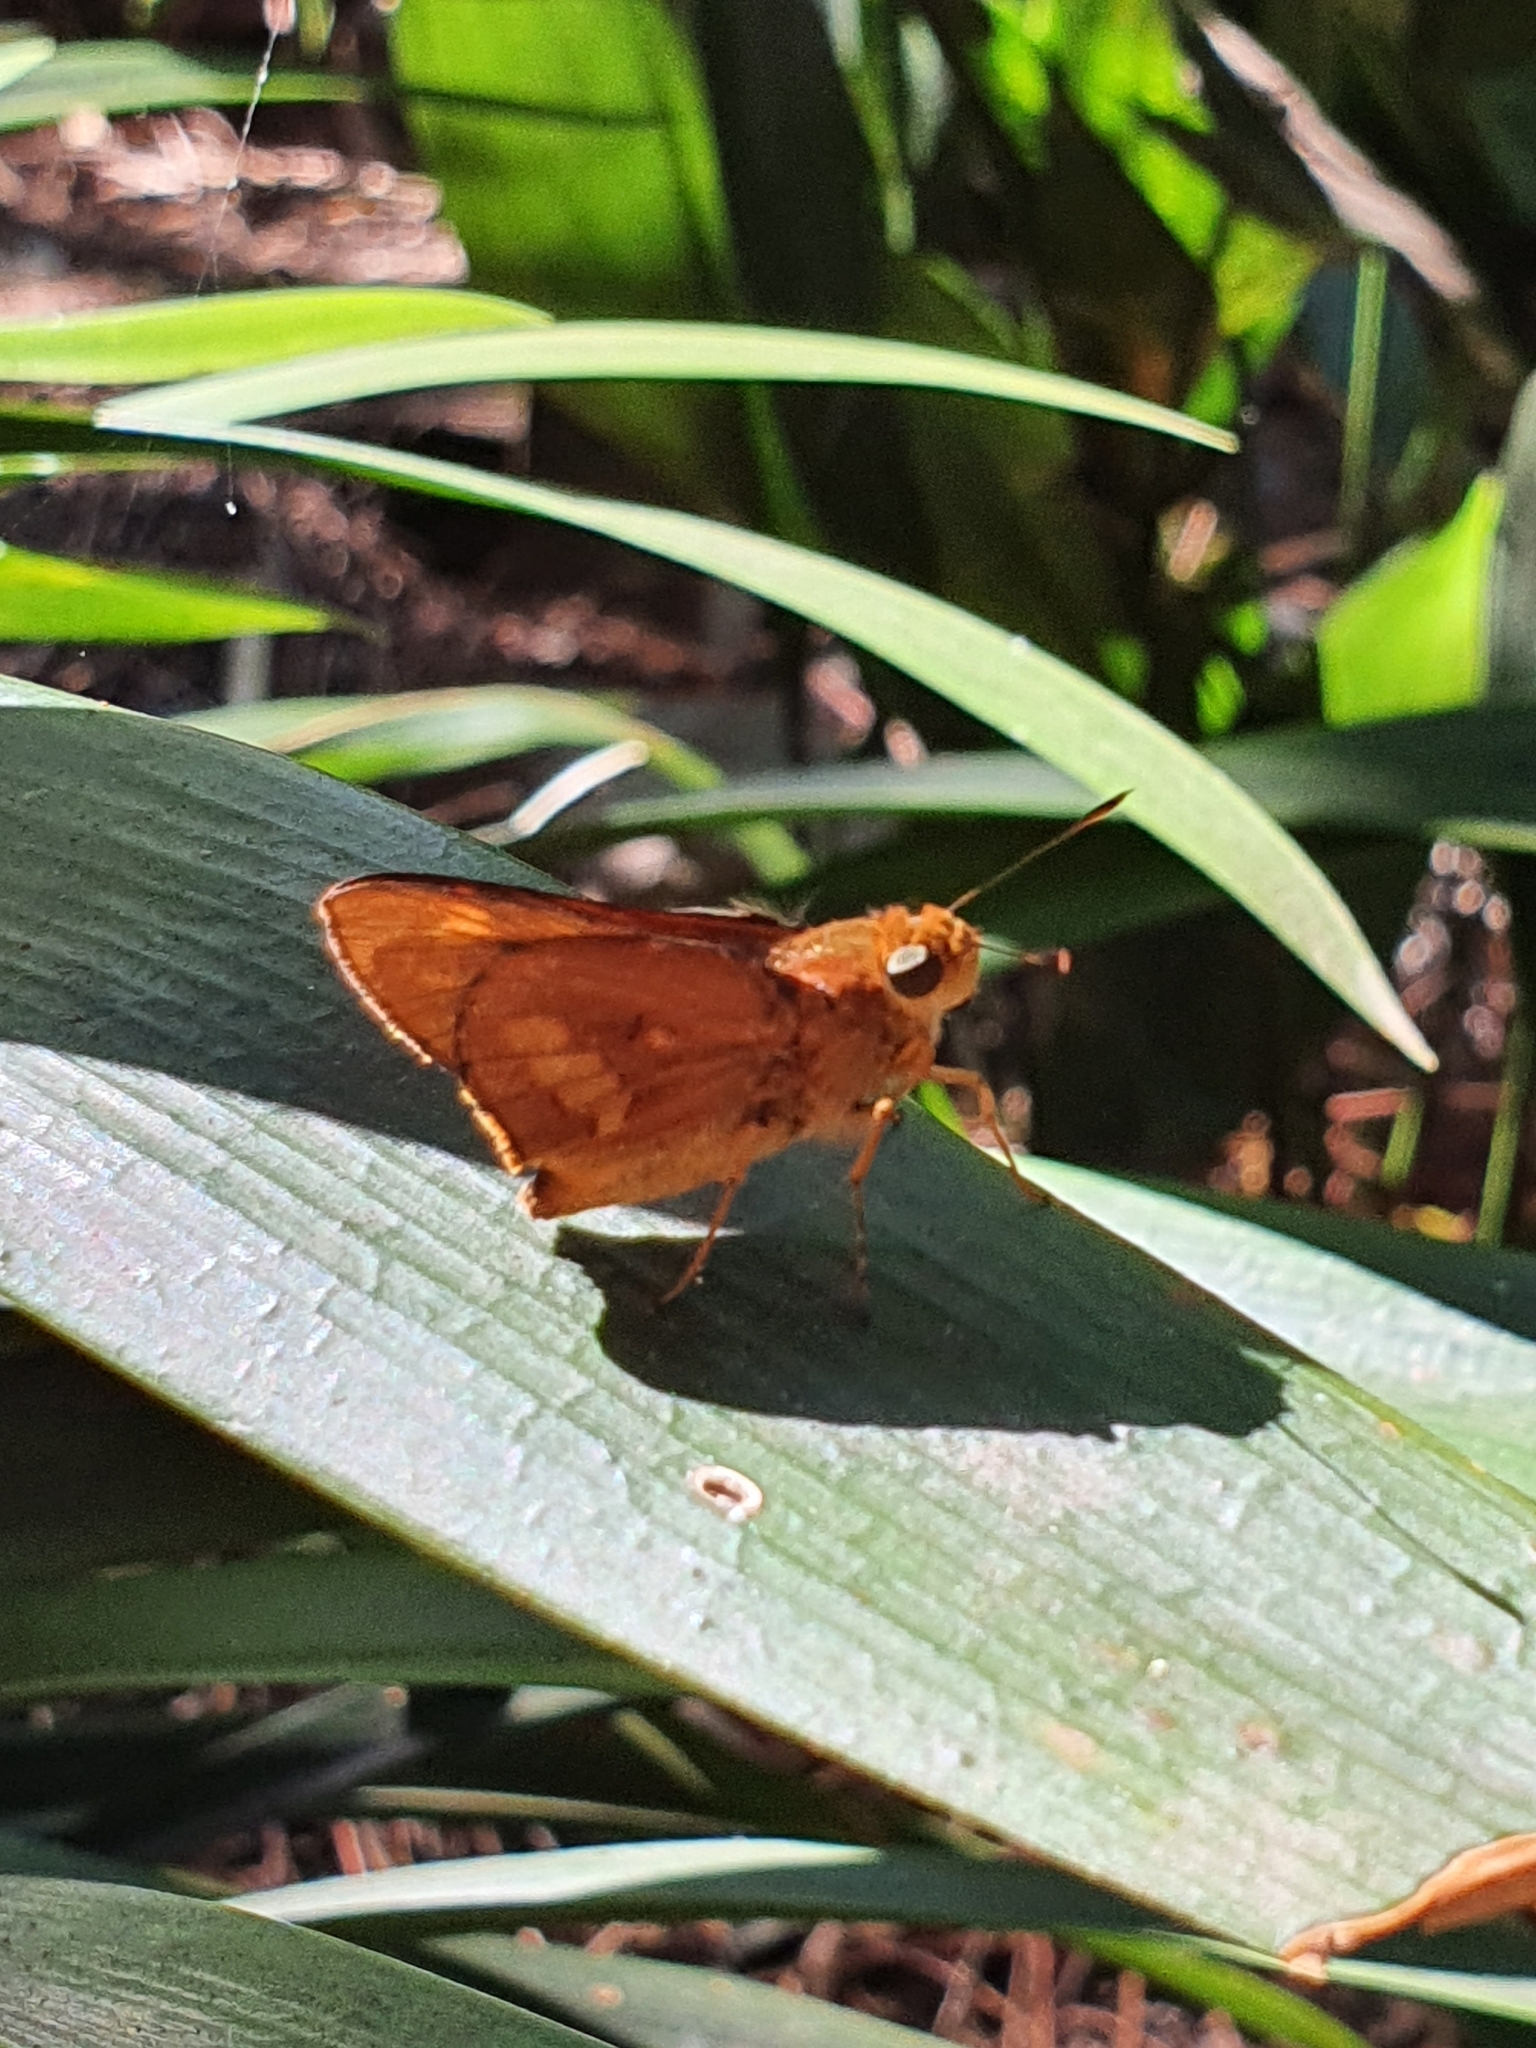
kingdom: Animalia
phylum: Arthropoda
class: Insecta
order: Lepidoptera
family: Hesperiidae
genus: Cephrenes
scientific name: Cephrenes augiades
